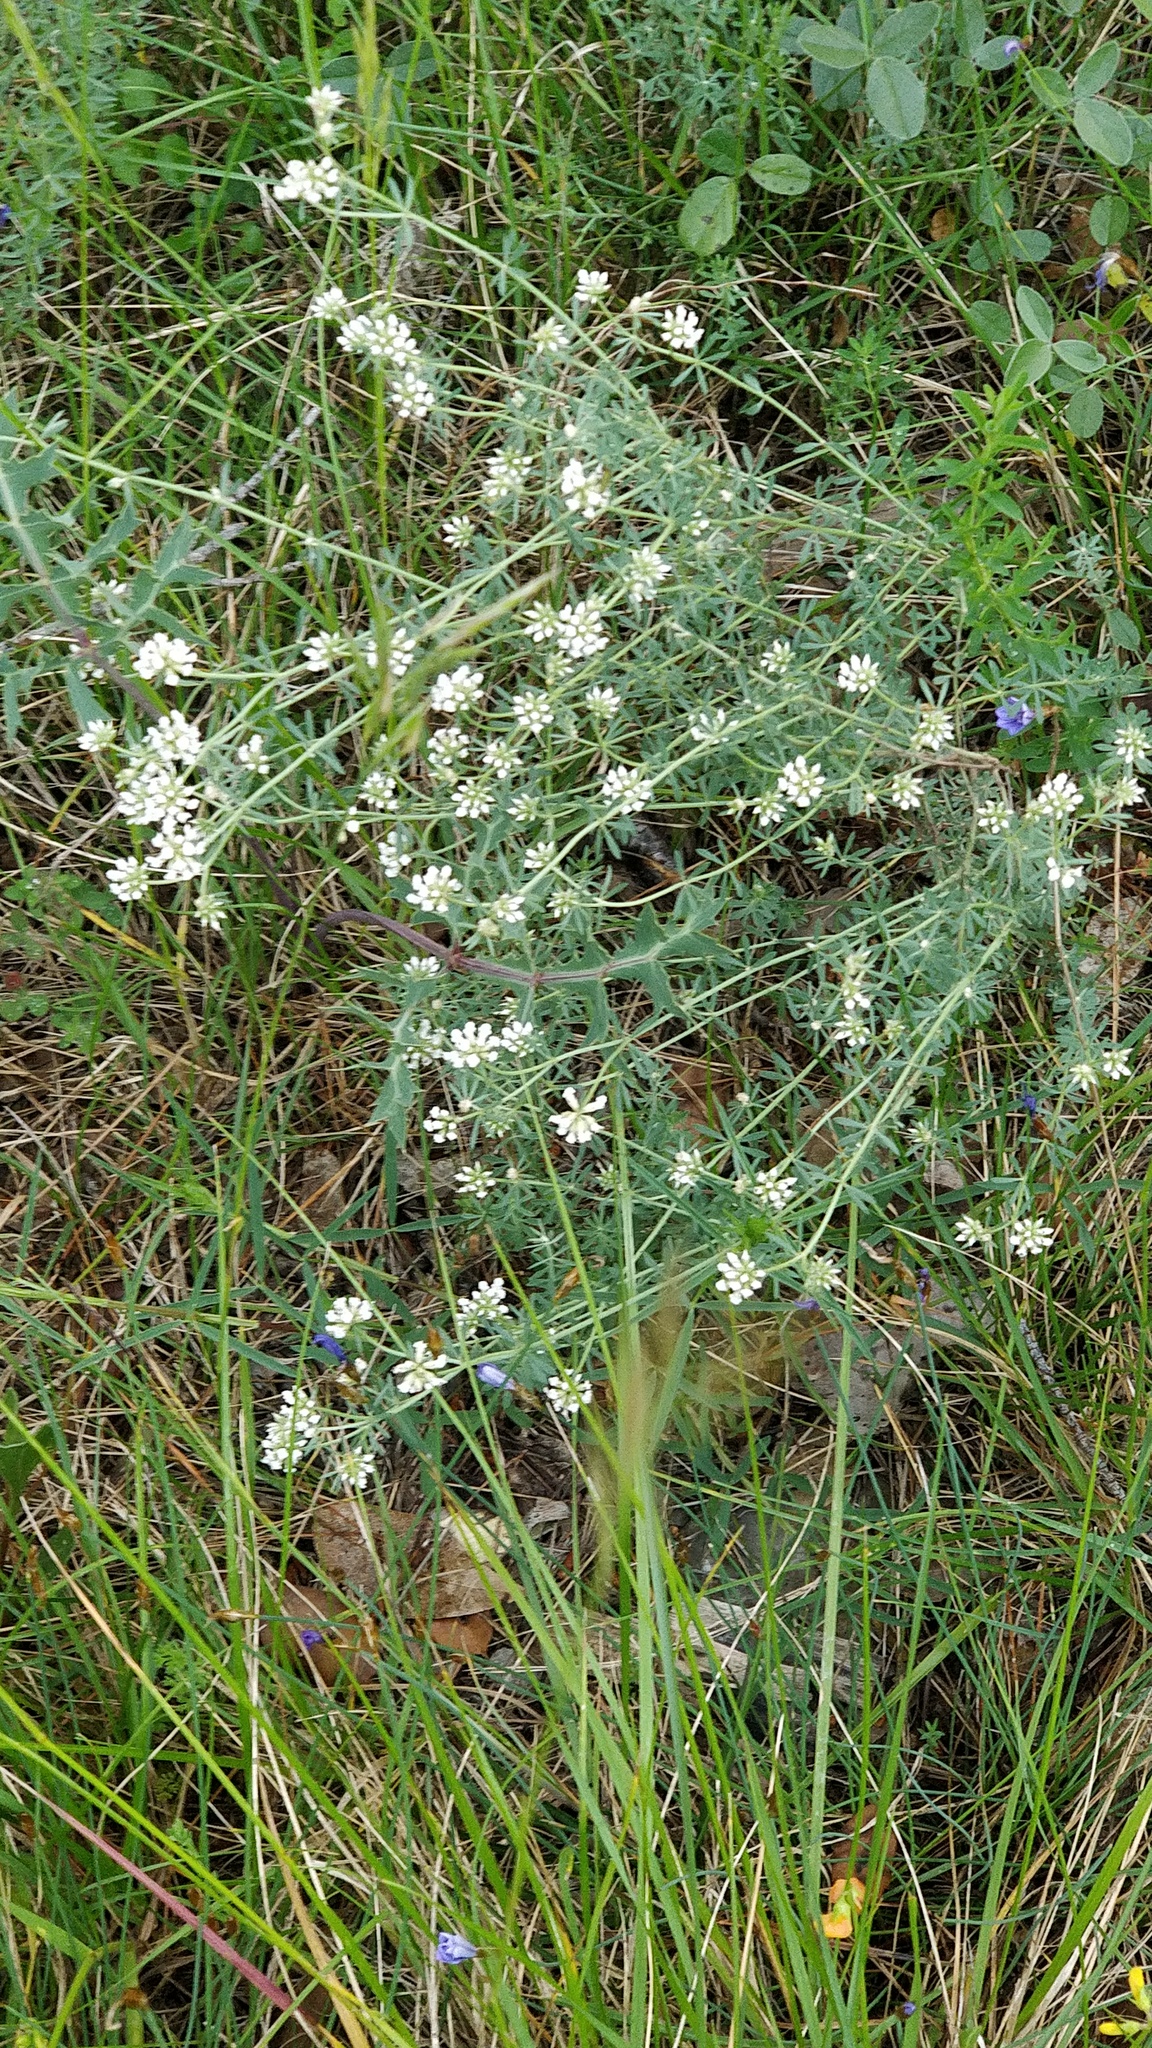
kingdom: Plantae
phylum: Tracheophyta
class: Magnoliopsida
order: Fabales
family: Fabaceae
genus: Lotus
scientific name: Lotus dorycnium
